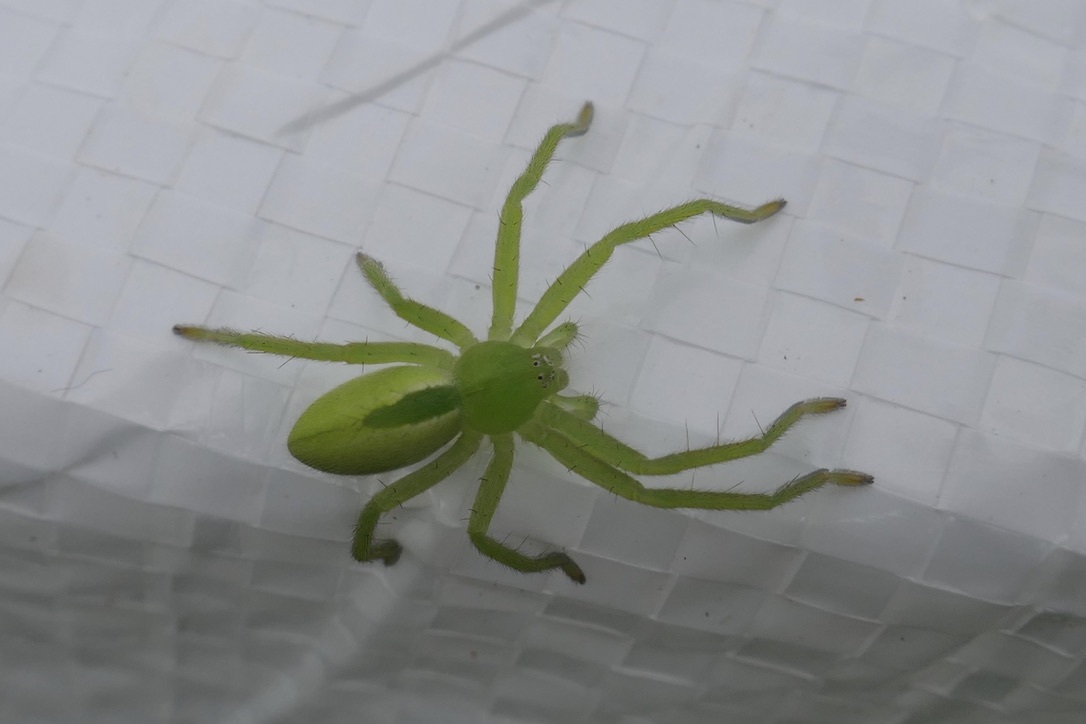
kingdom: Animalia
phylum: Arthropoda
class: Arachnida
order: Araneae
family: Sparassidae
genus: Micrommata
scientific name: Micrommata virescens
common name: Green spider
